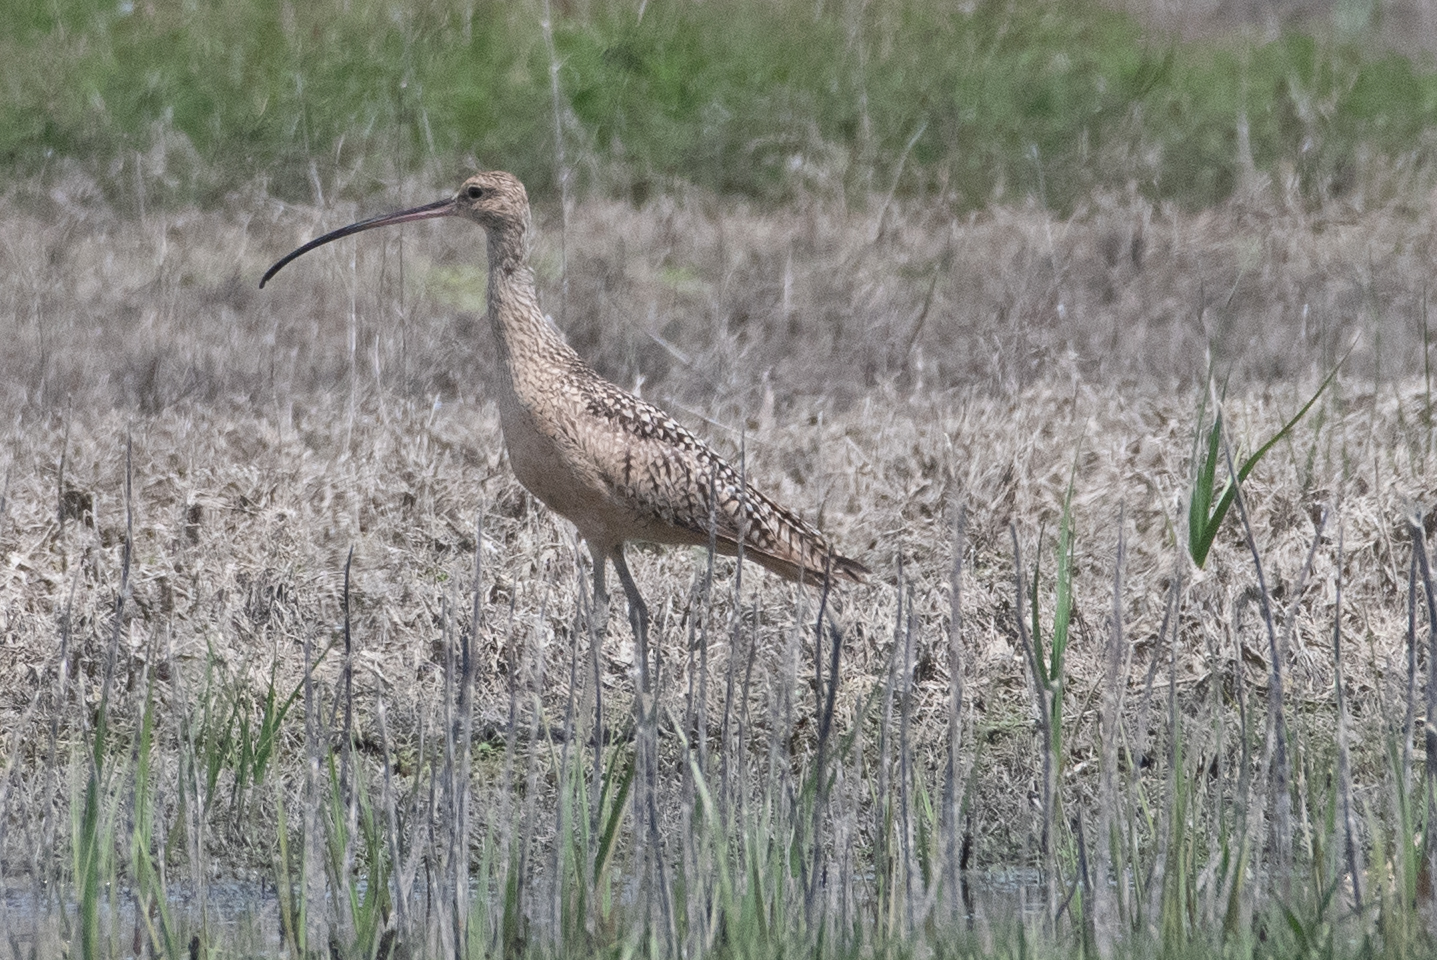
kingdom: Animalia
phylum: Chordata
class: Aves
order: Charadriiformes
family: Scolopacidae
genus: Numenius
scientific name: Numenius americanus
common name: Long-billed curlew
